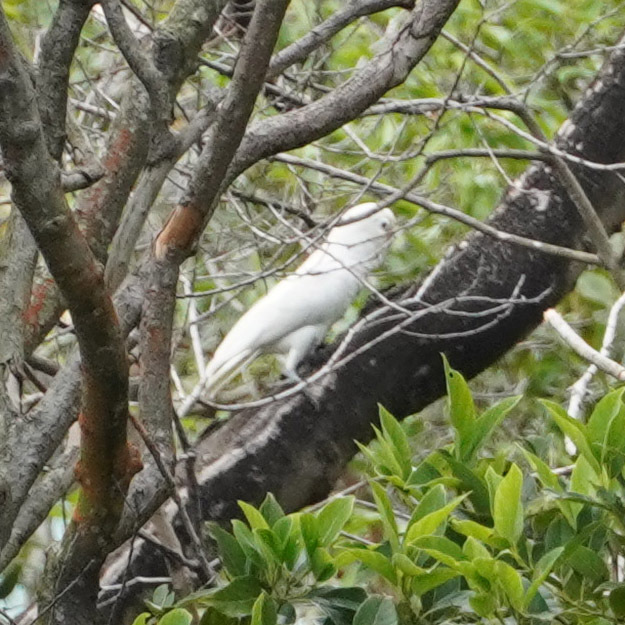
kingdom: Animalia
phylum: Chordata
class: Aves
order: Psittaciformes
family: Psittacidae
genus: Cacatua
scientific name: Cacatua goffiniana
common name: Tanimbar corella
